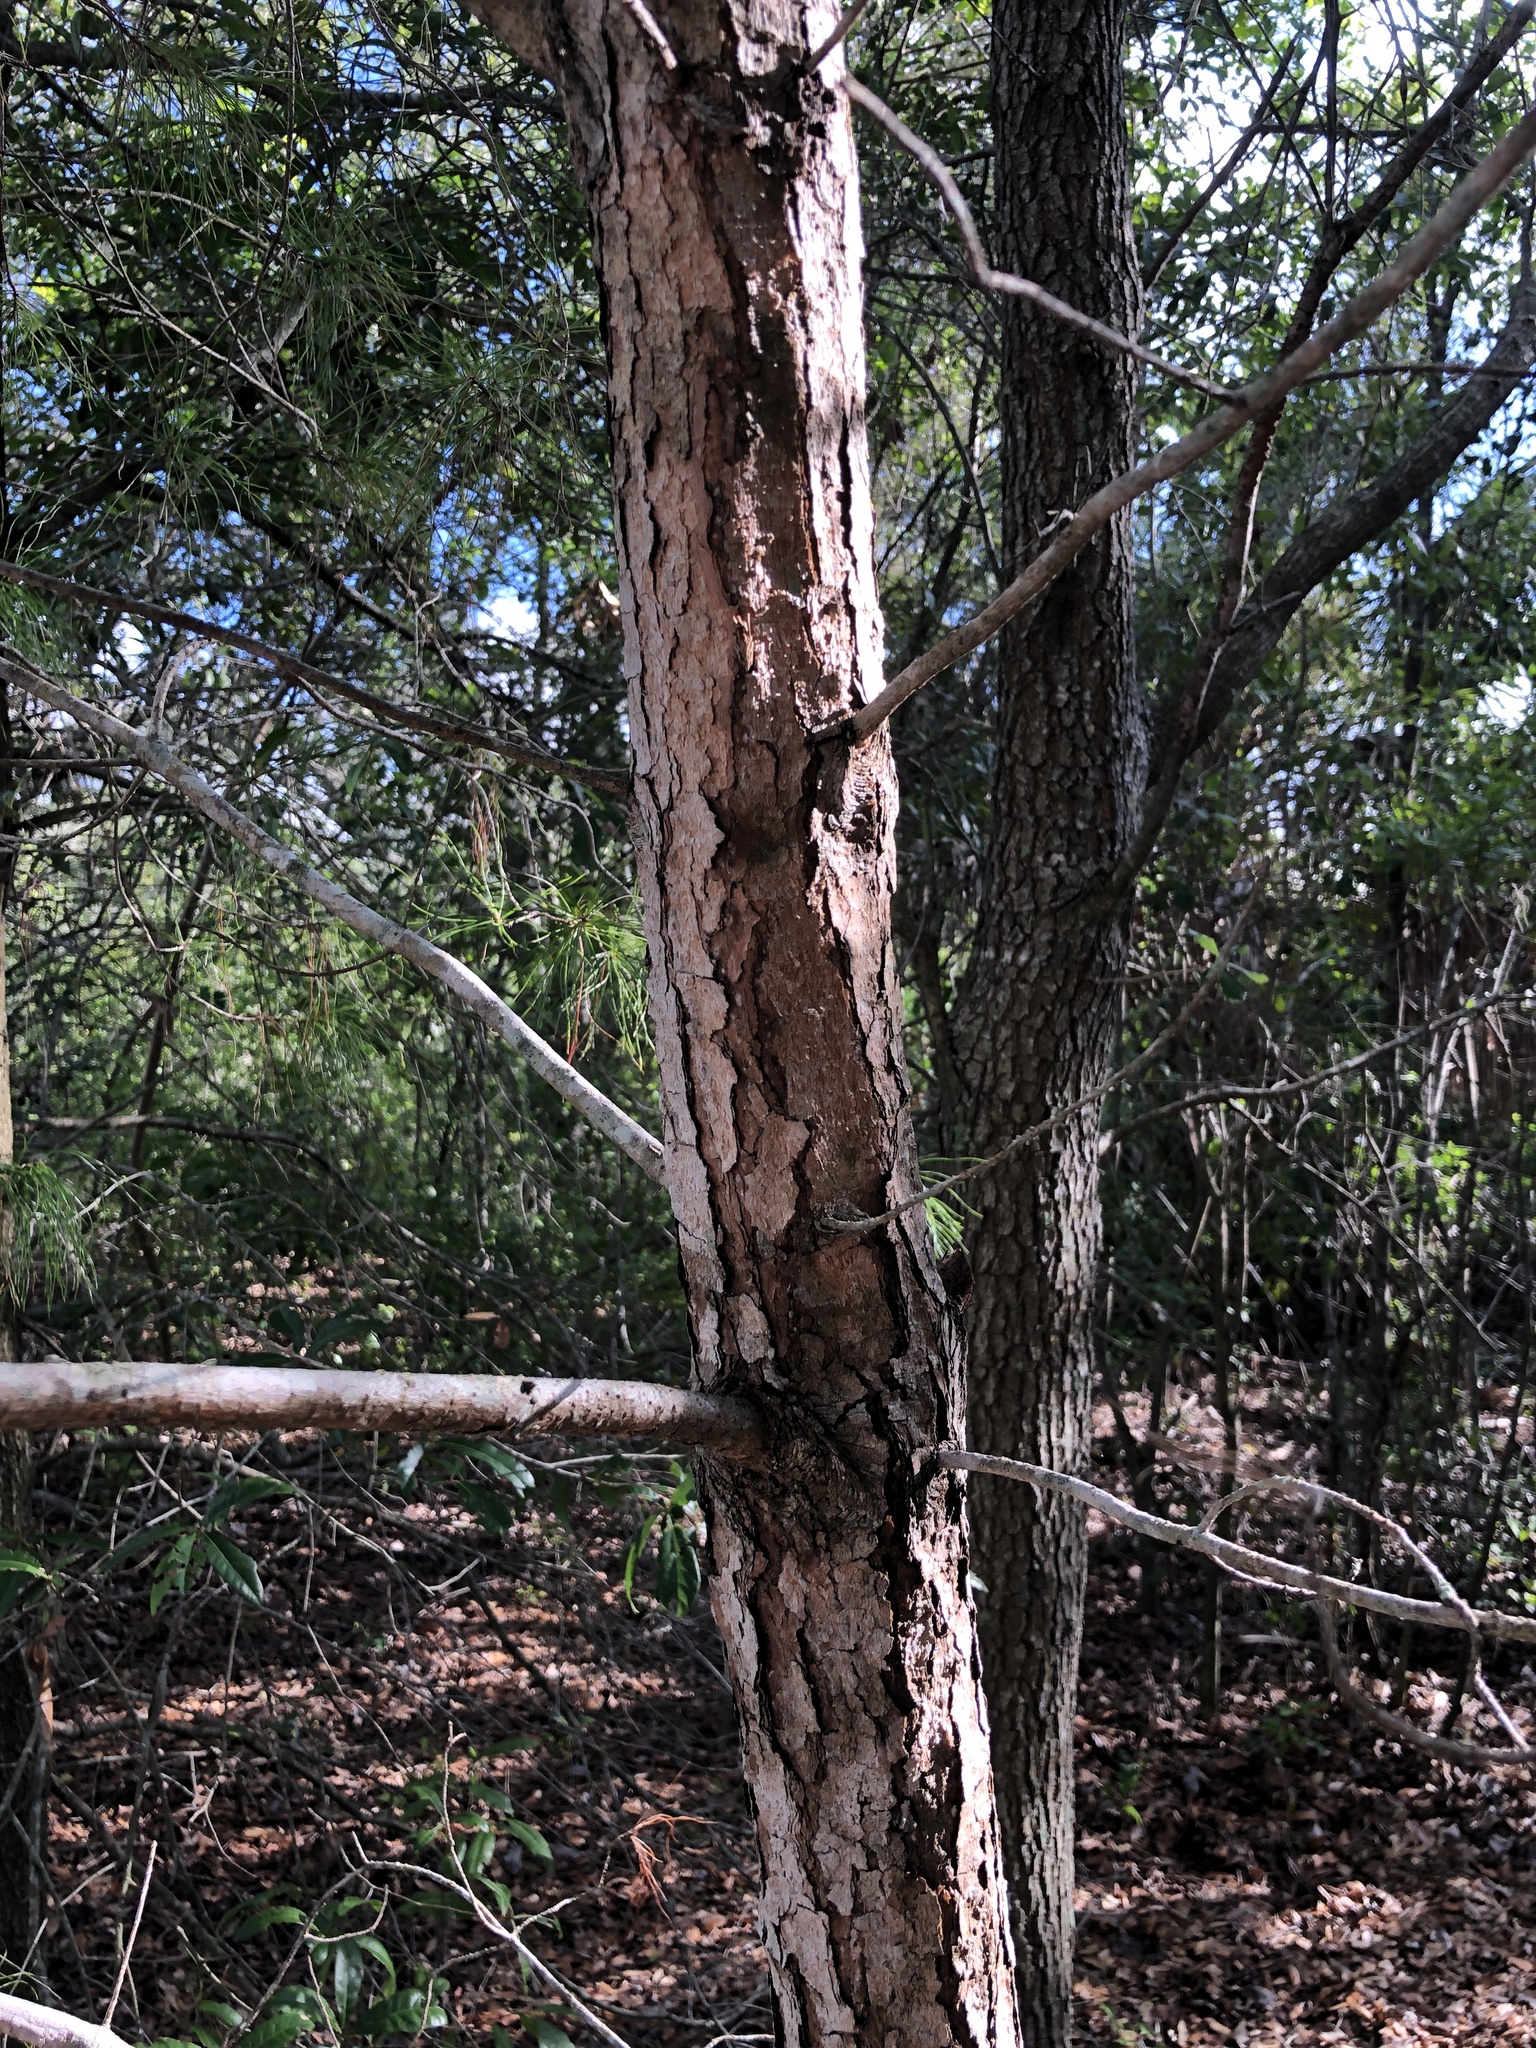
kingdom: Plantae
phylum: Tracheophyta
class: Pinopsida
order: Pinales
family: Pinaceae
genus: Pinus
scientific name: Pinus clausa
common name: Sand pine
